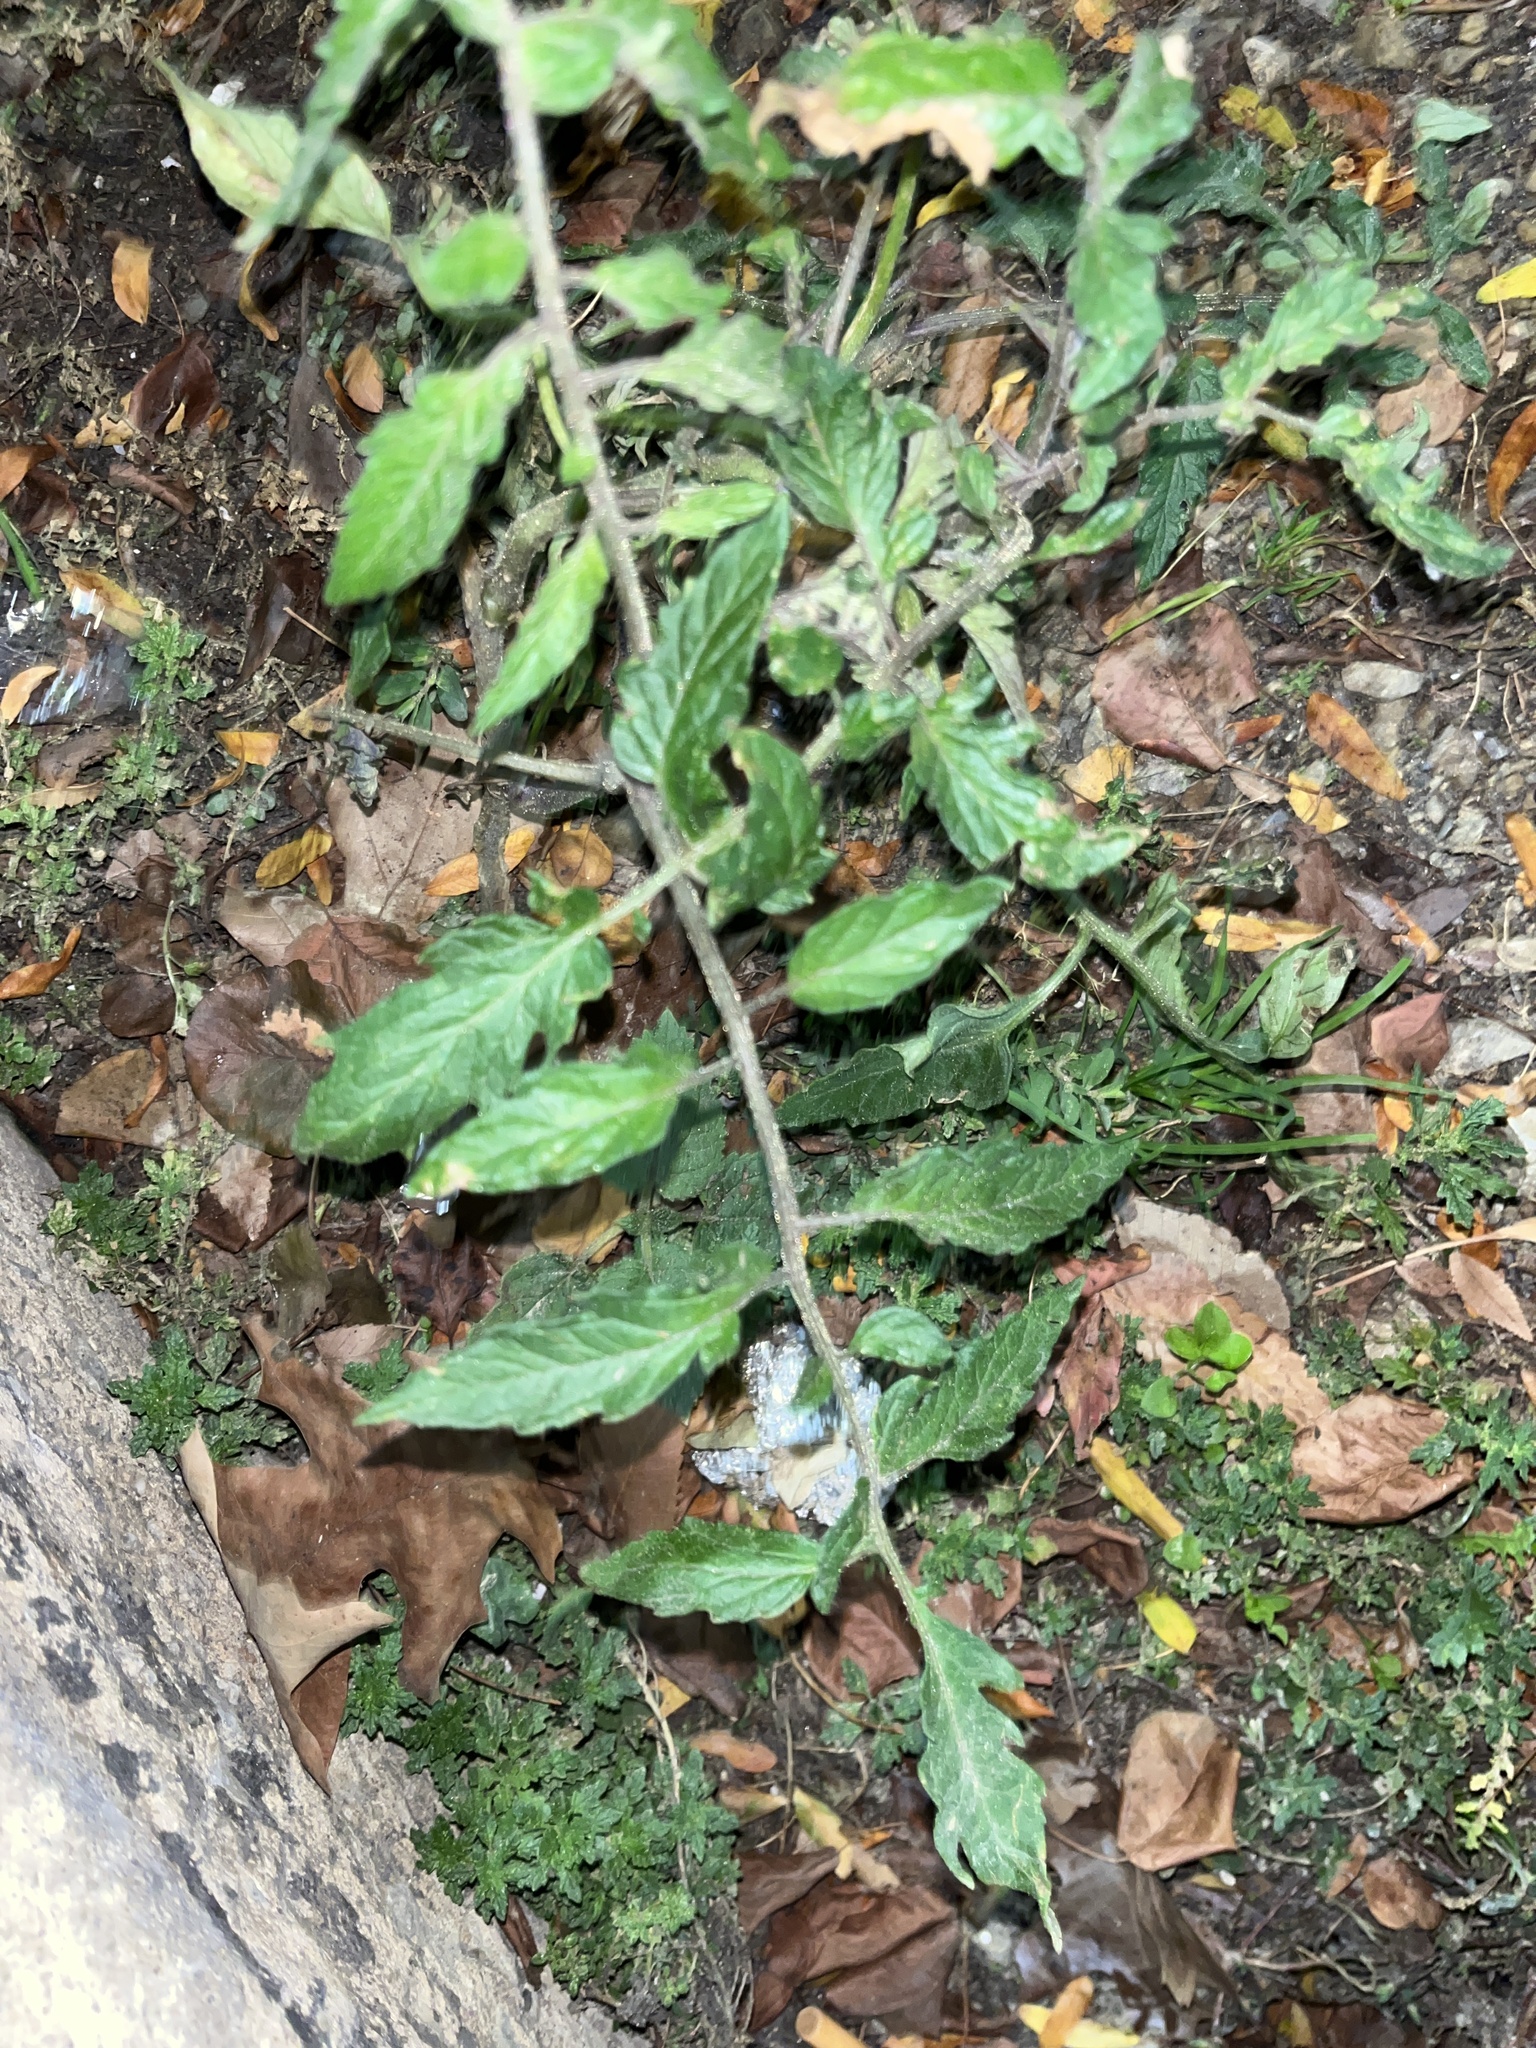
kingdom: Plantae
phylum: Tracheophyta
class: Magnoliopsida
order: Solanales
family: Solanaceae
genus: Solanum
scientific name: Solanum lycopersicum
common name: Garden tomato
